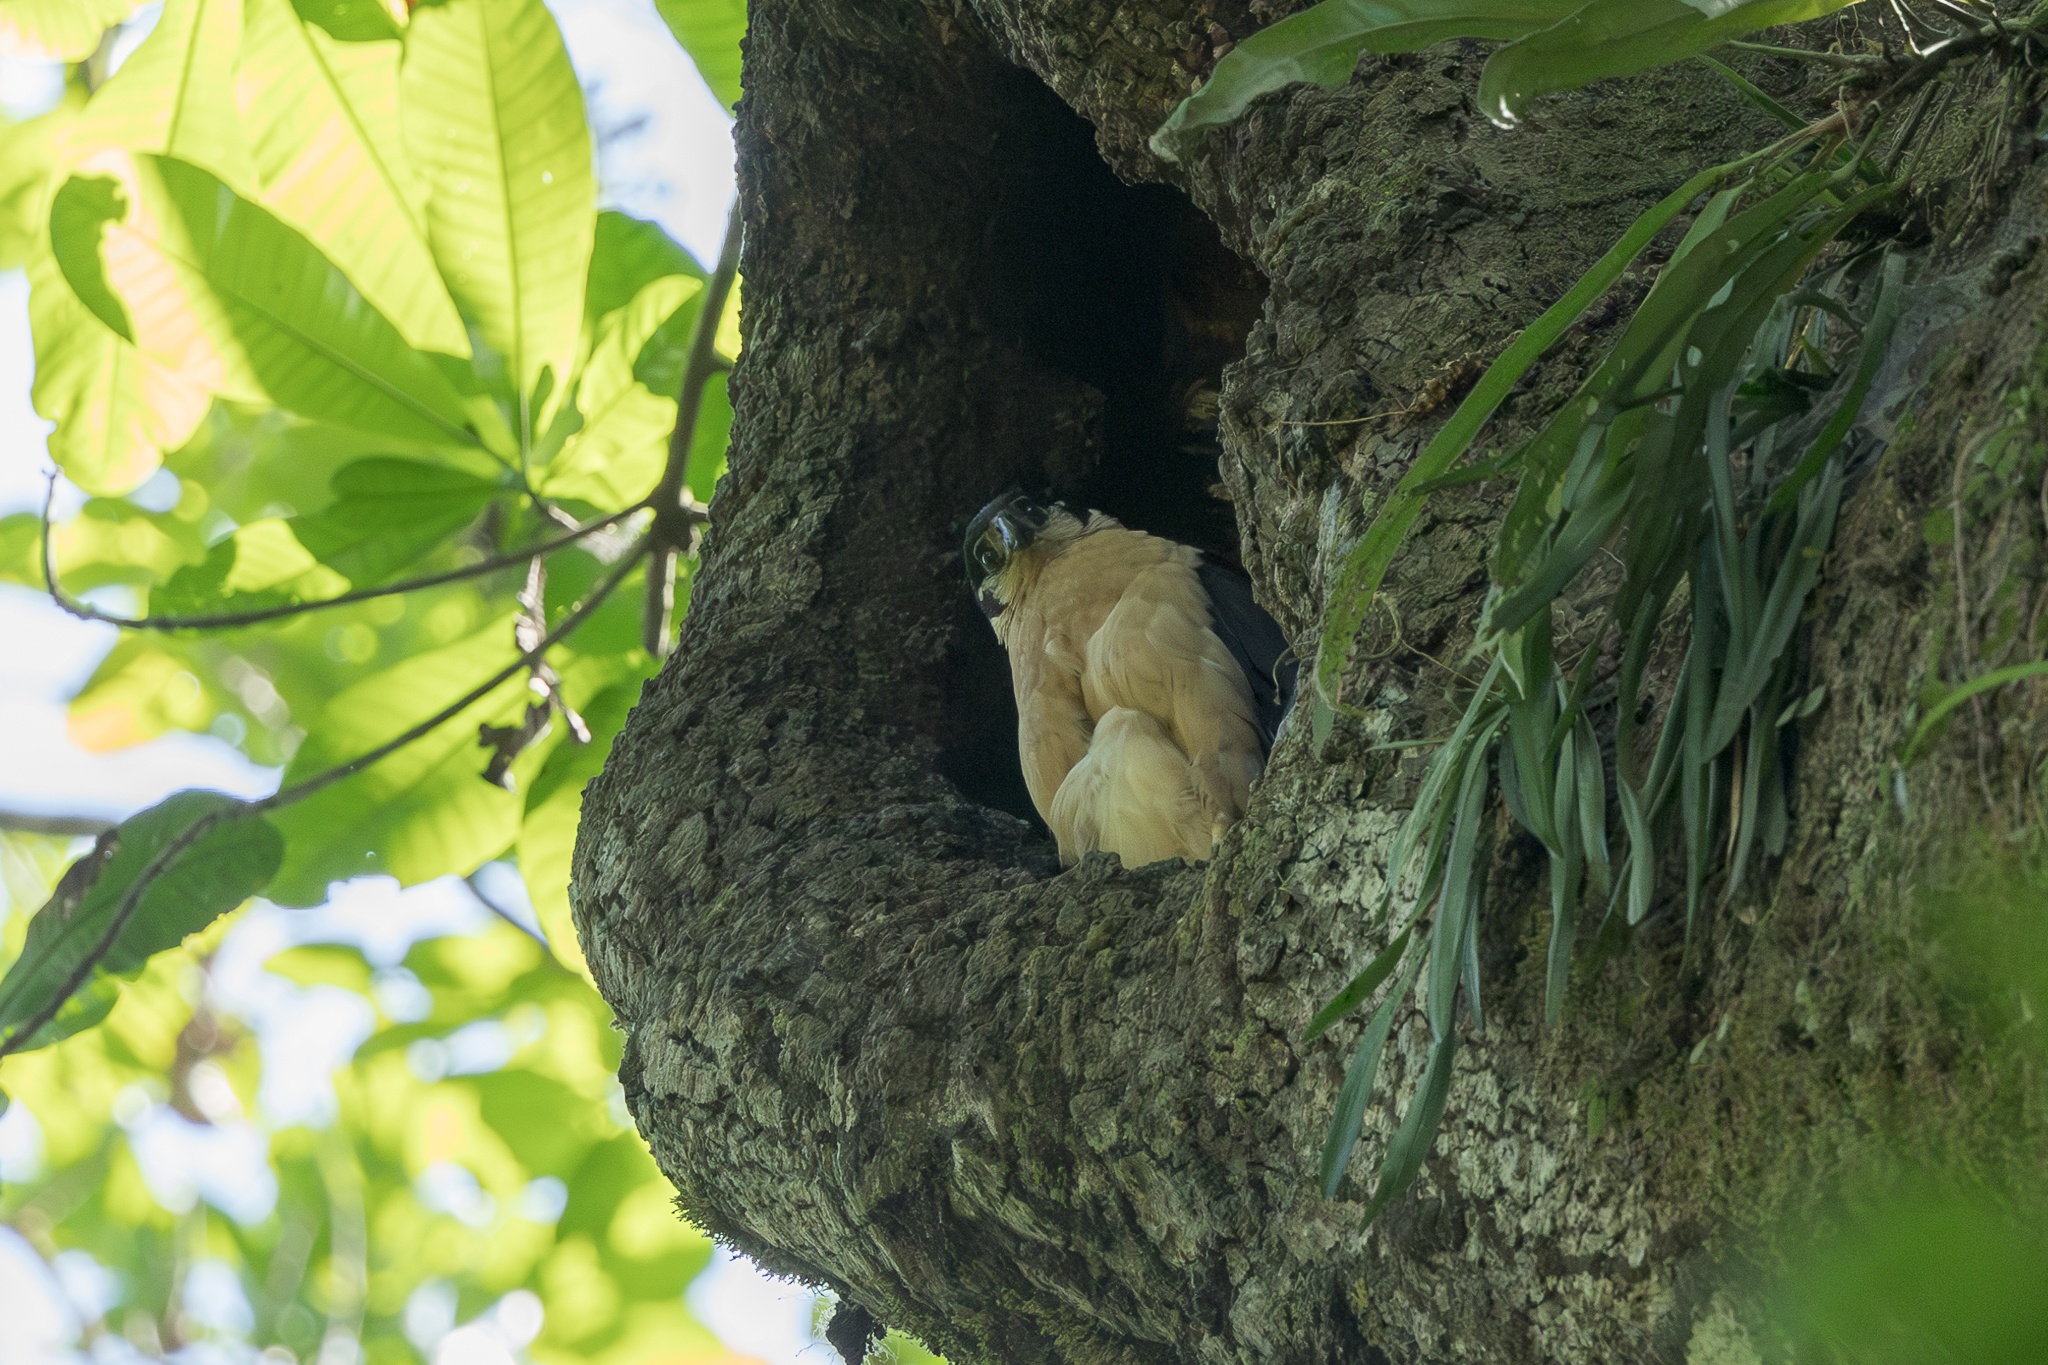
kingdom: Animalia
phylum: Chordata
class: Aves
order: Falconiformes
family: Falconidae
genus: Micrastur
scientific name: Micrastur semitorquatus
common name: Collared forest-falcon
